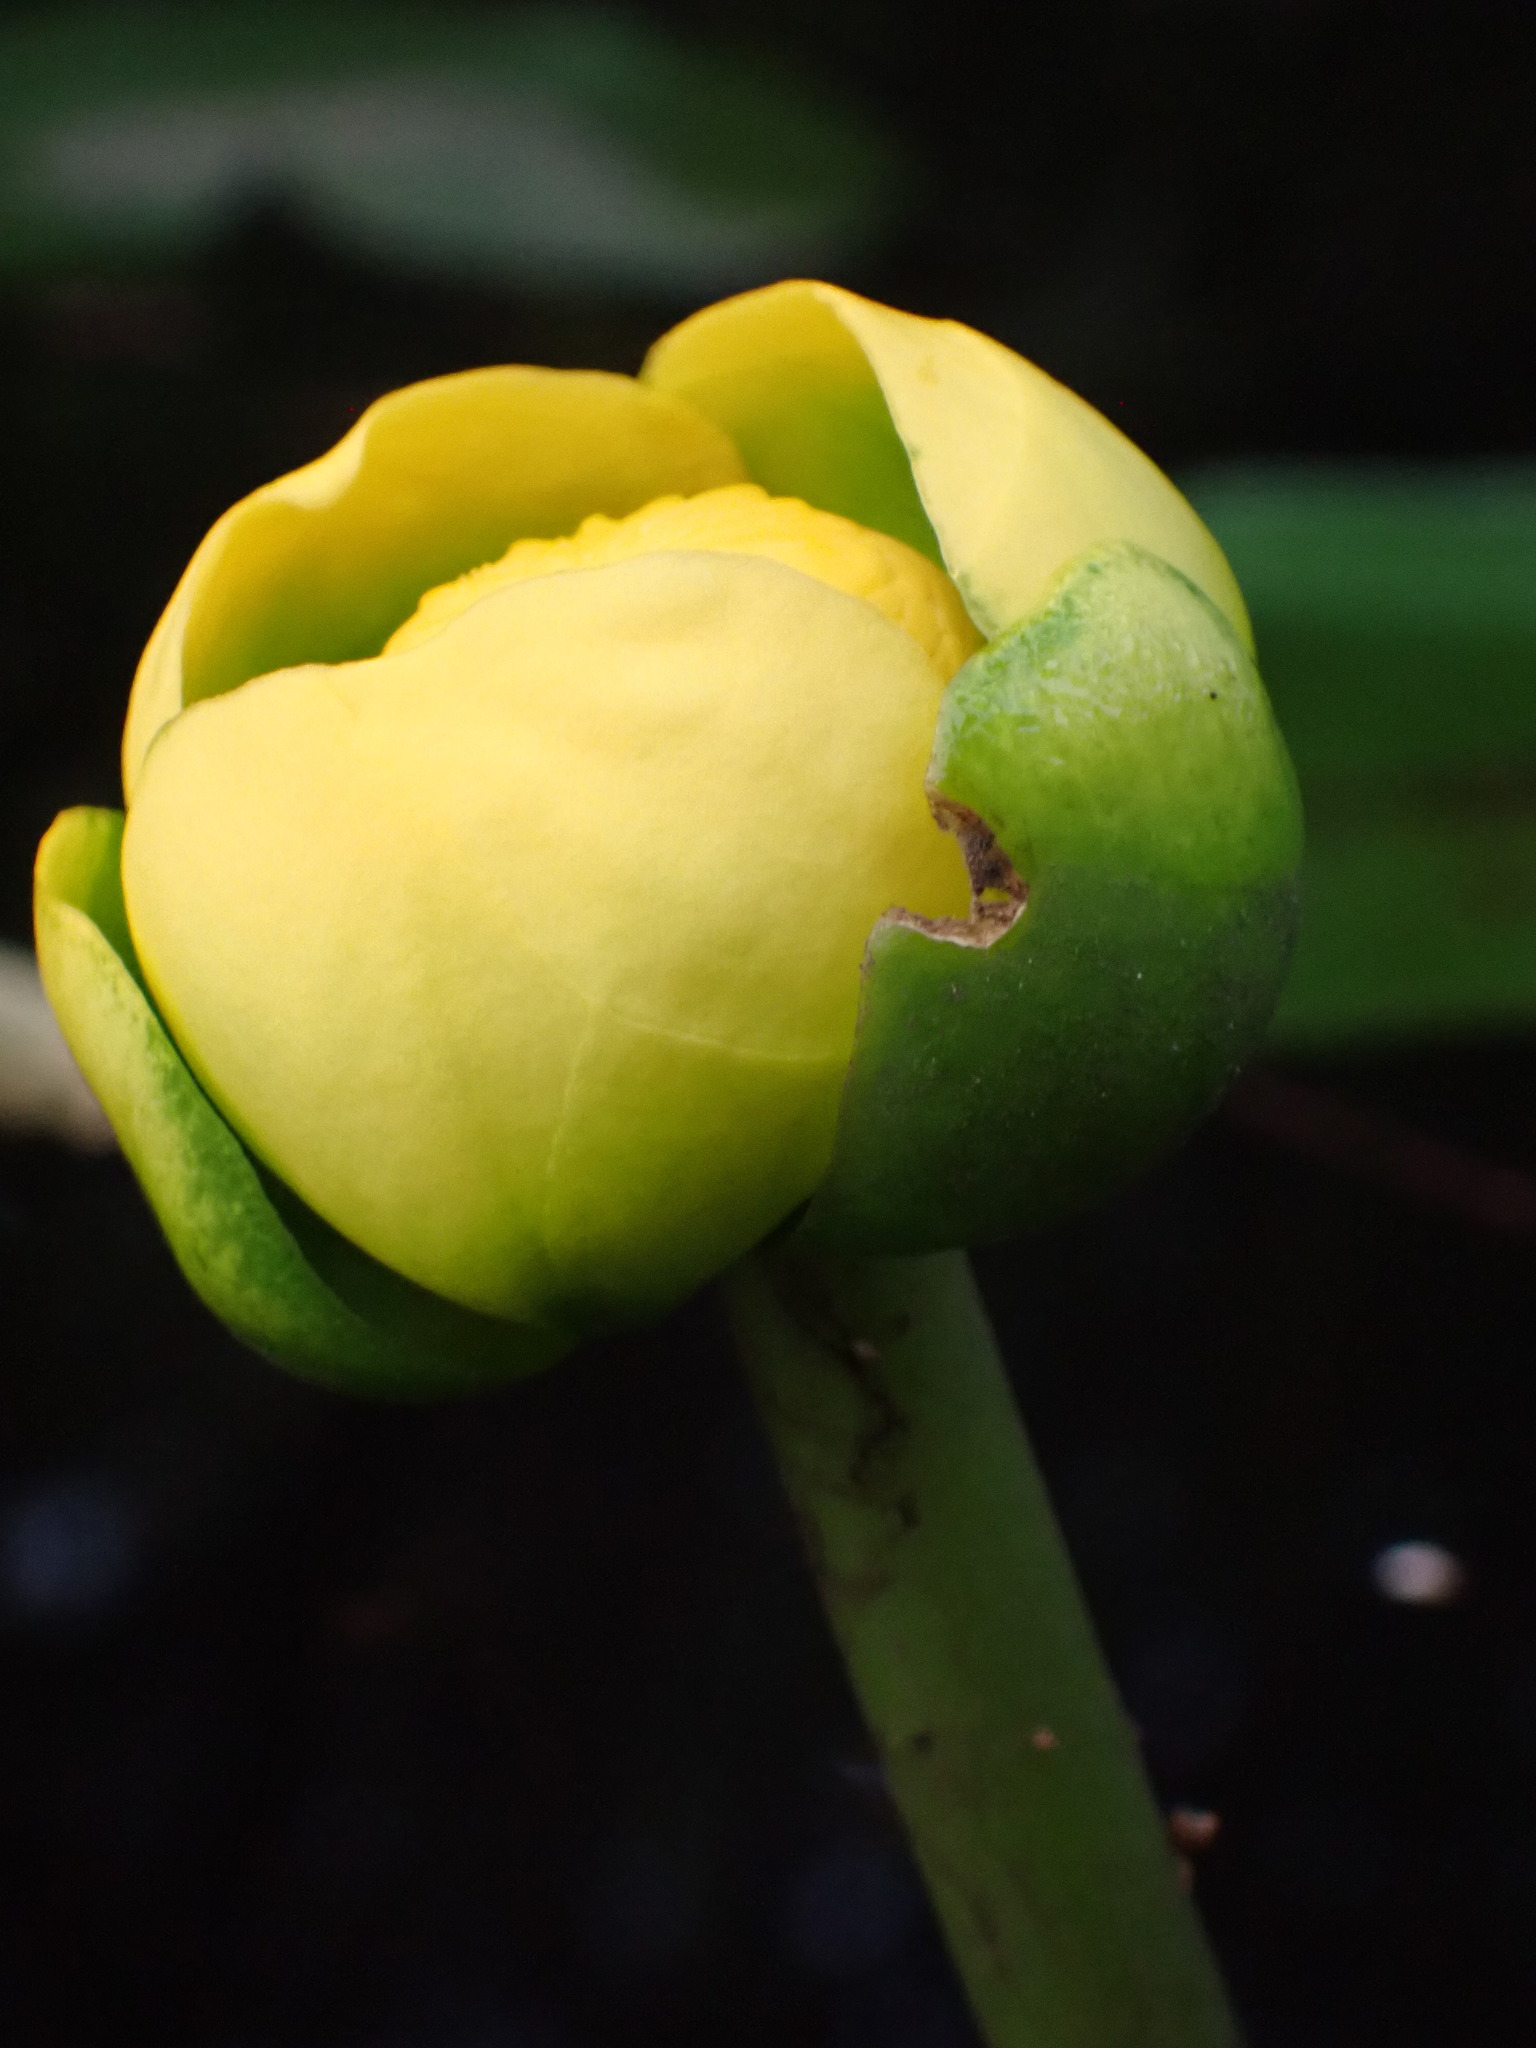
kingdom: Plantae
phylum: Tracheophyta
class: Magnoliopsida
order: Nymphaeales
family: Nymphaeaceae
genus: Nuphar
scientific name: Nuphar advena
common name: Spatter-dock
